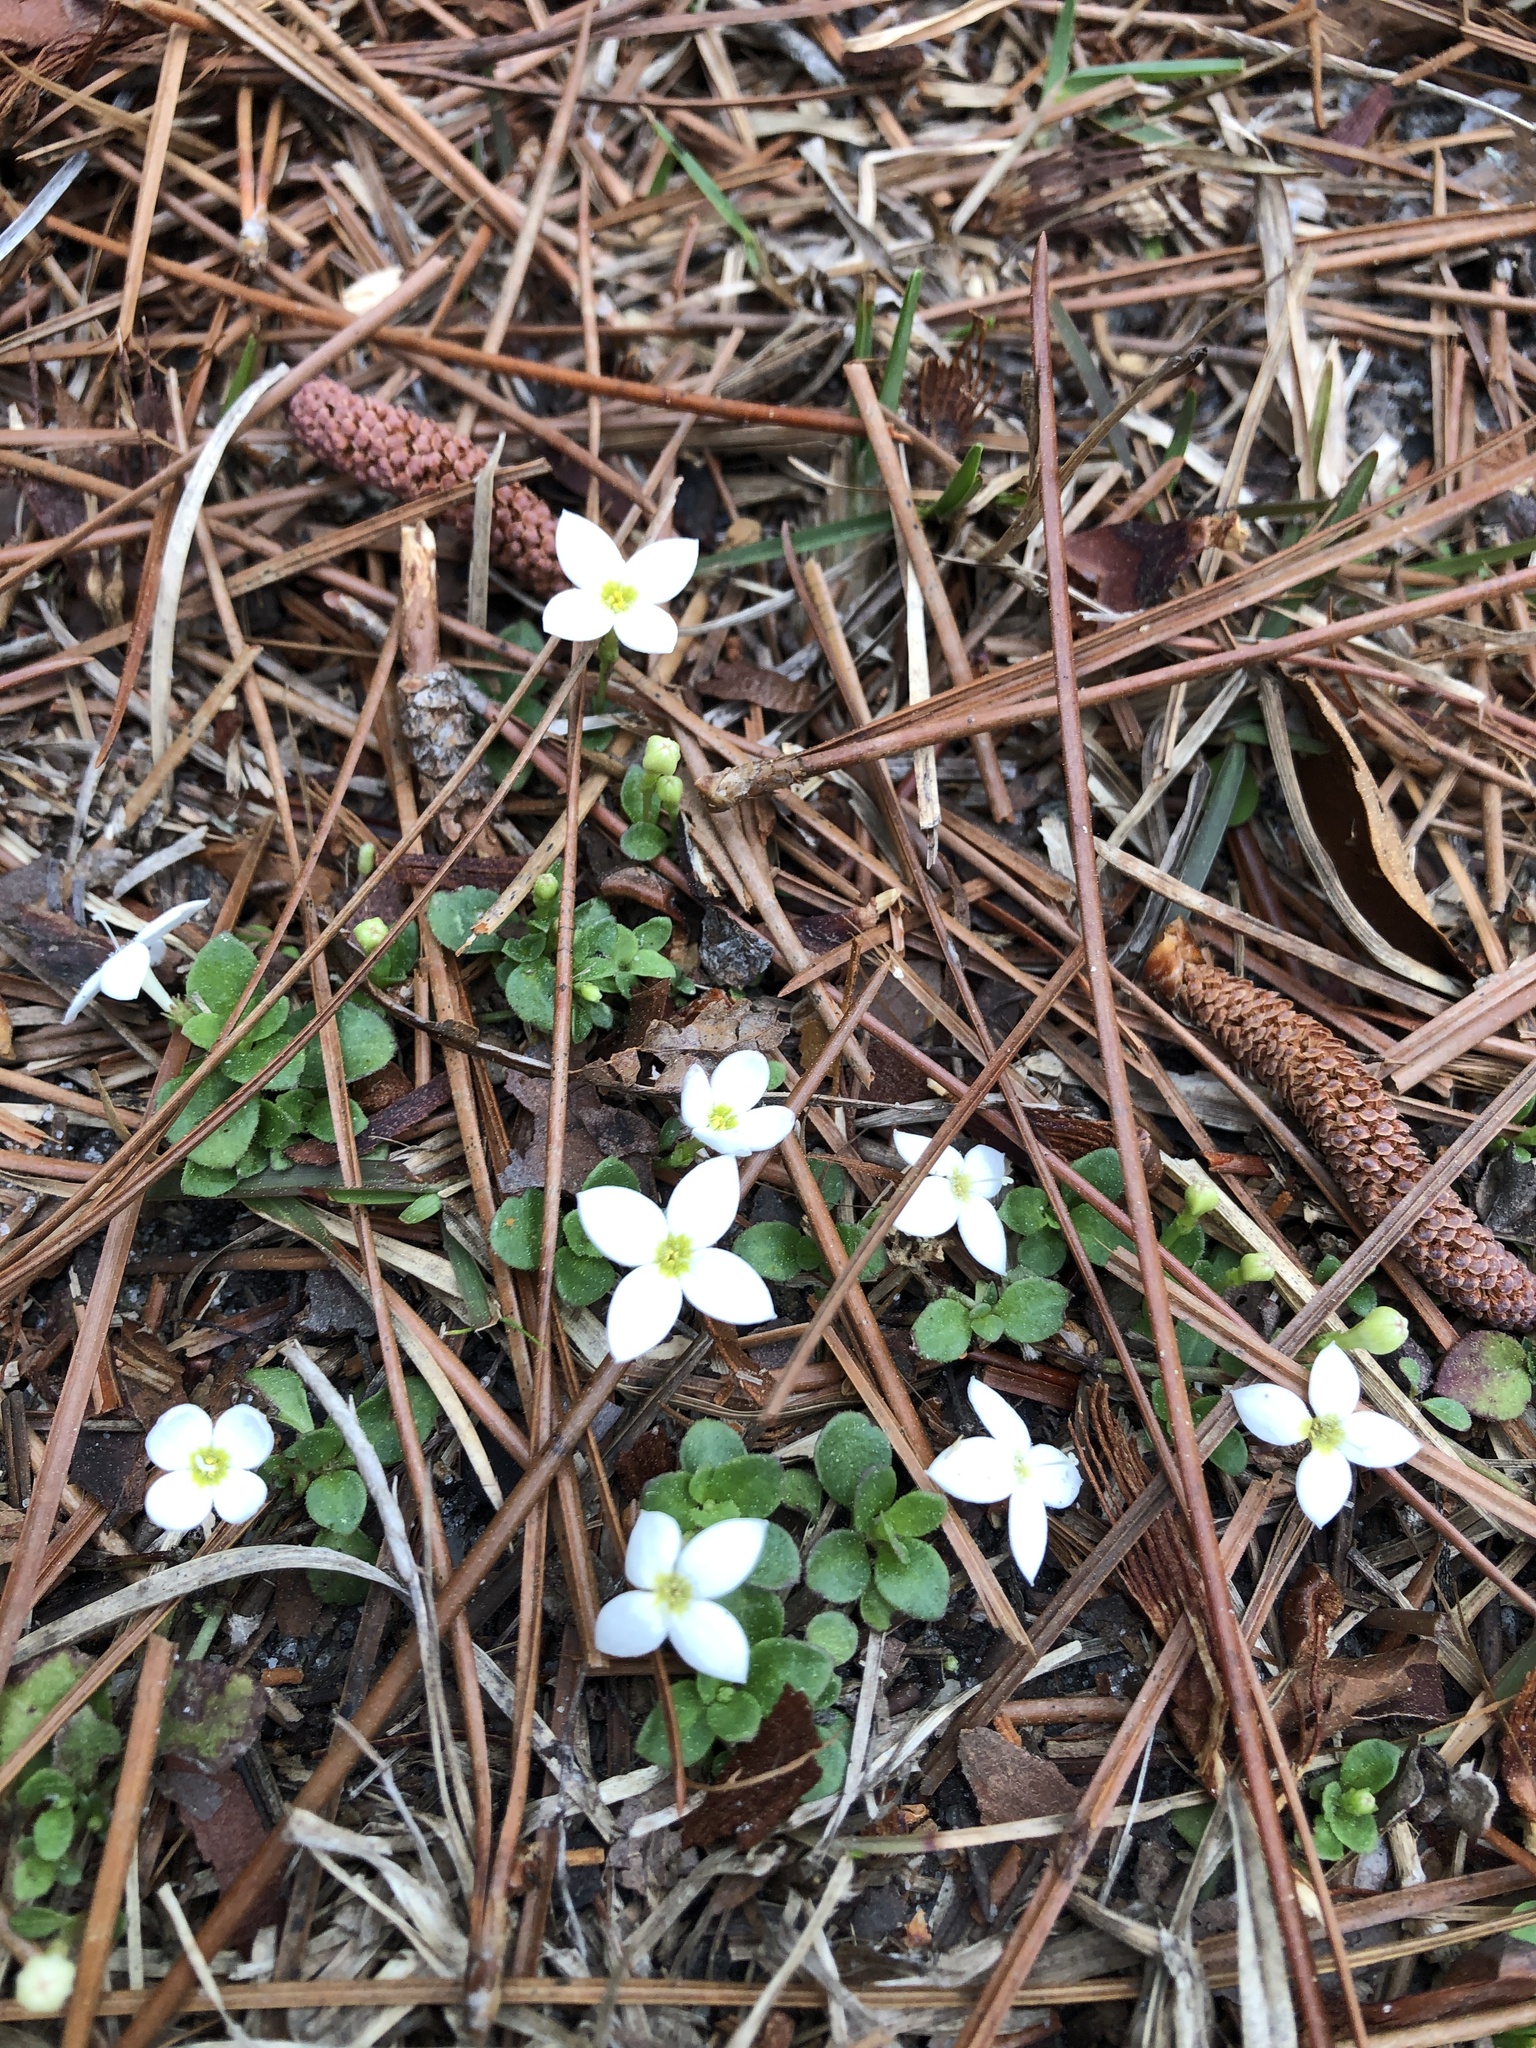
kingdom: Plantae
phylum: Tracheophyta
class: Magnoliopsida
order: Gentianales
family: Rubiaceae
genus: Houstonia
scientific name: Houstonia procumbens
